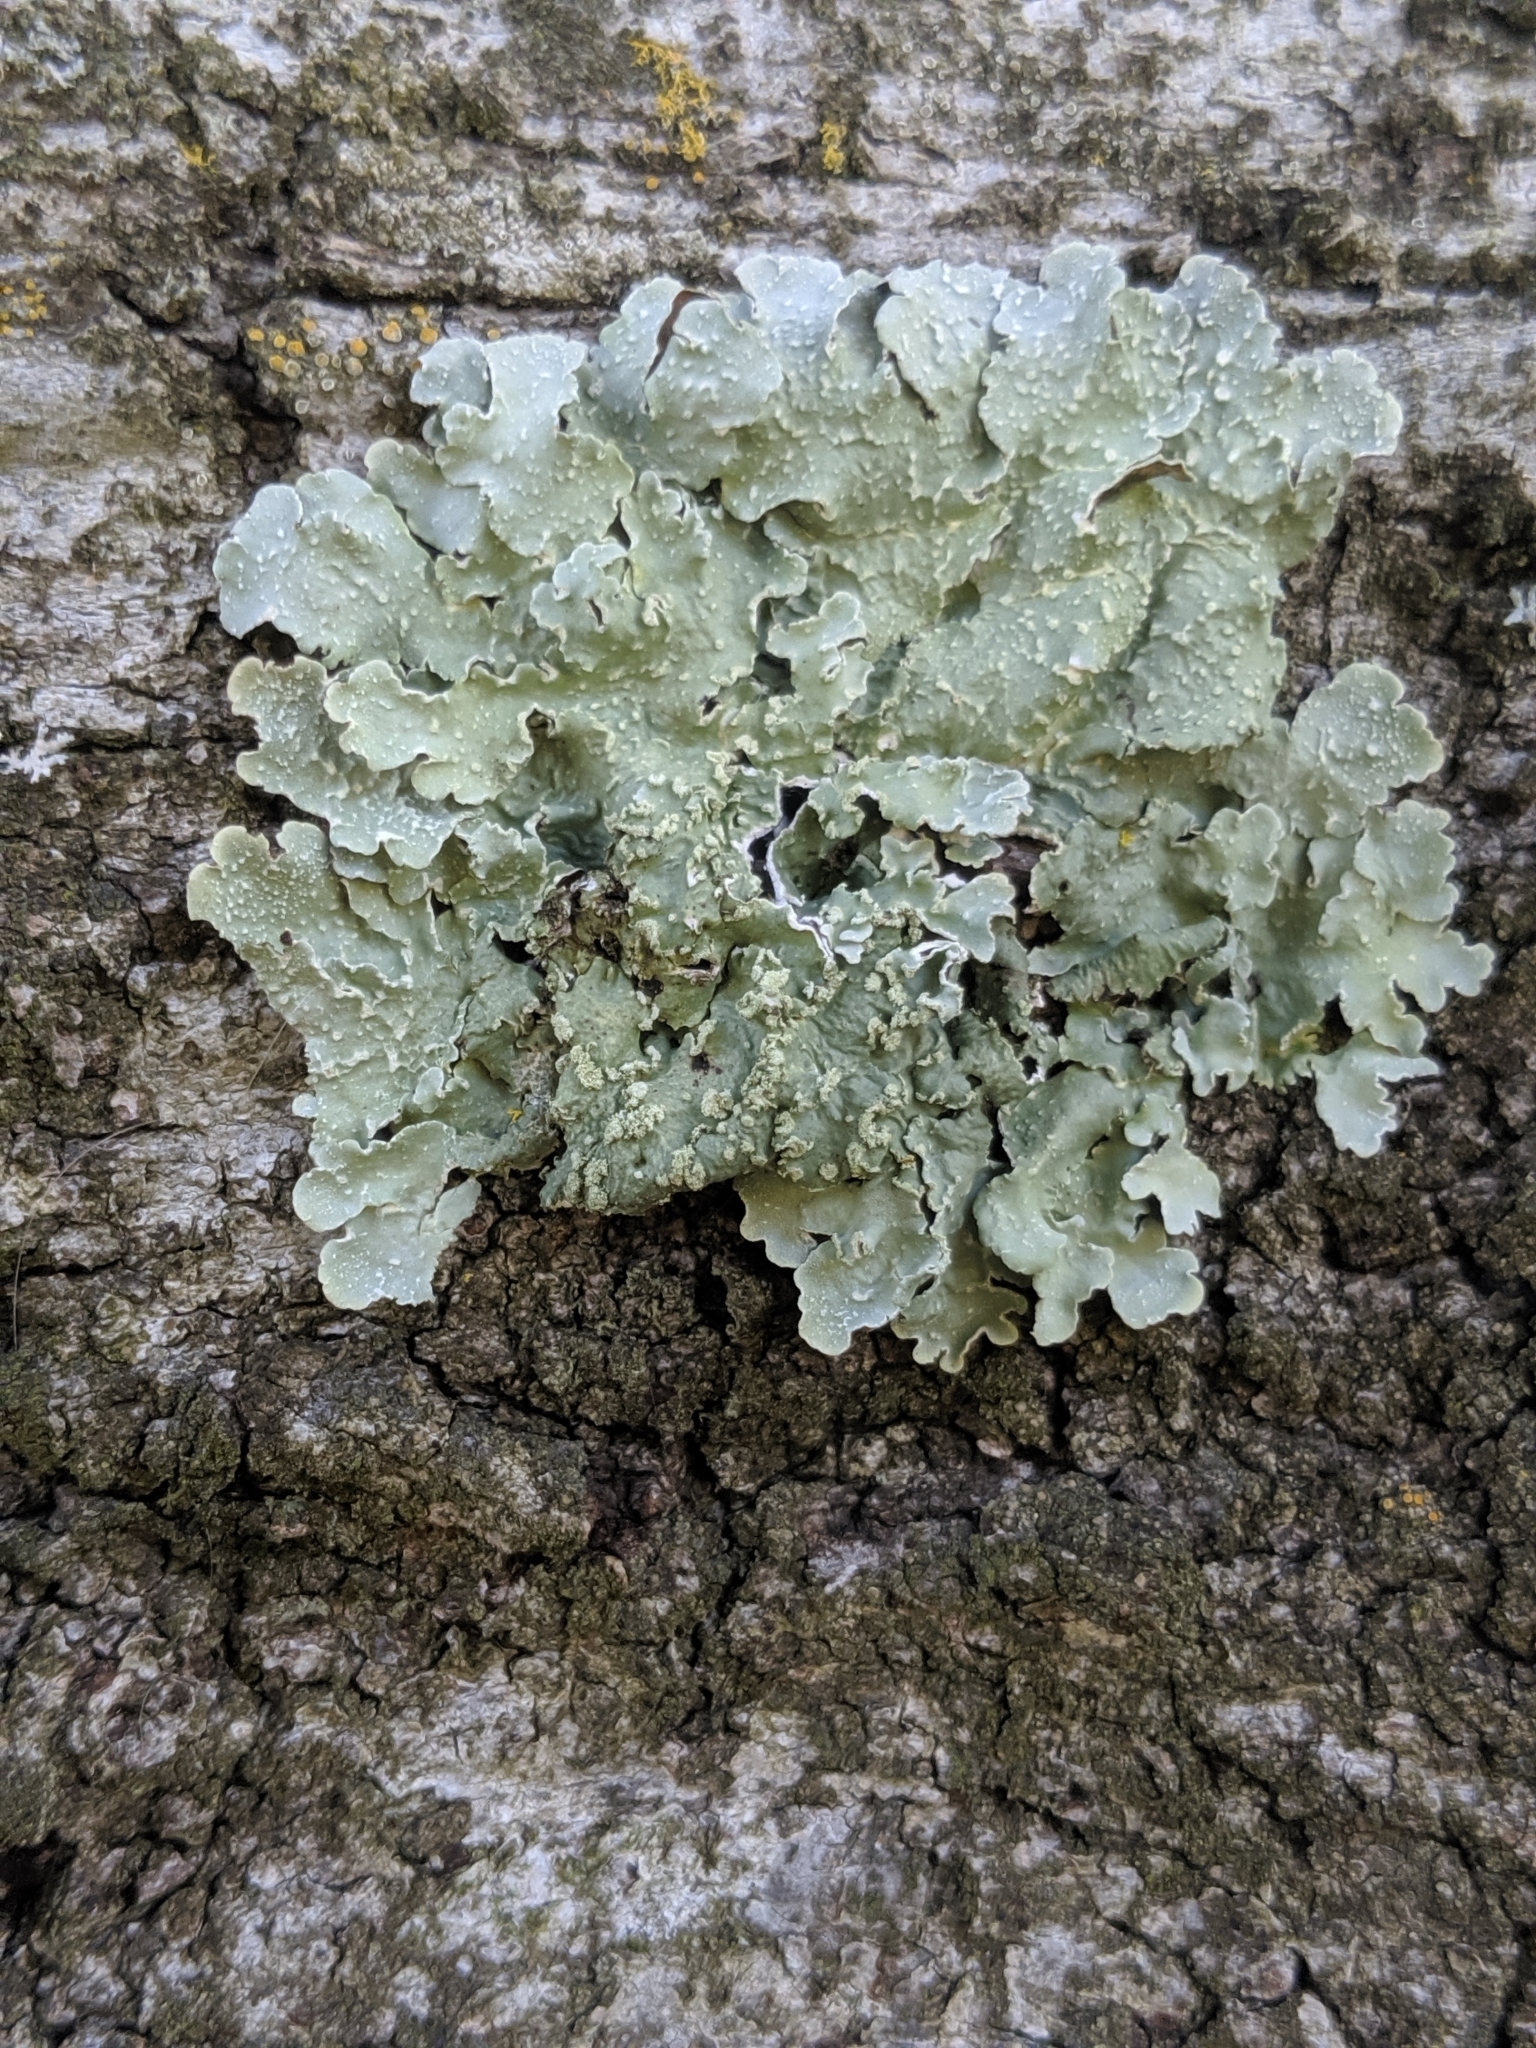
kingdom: Fungi
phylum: Ascomycota
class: Lecanoromycetes
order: Lecanorales
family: Parmeliaceae
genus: Flavopunctelia
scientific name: Flavopunctelia flaventior
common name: Speckled greenshield
